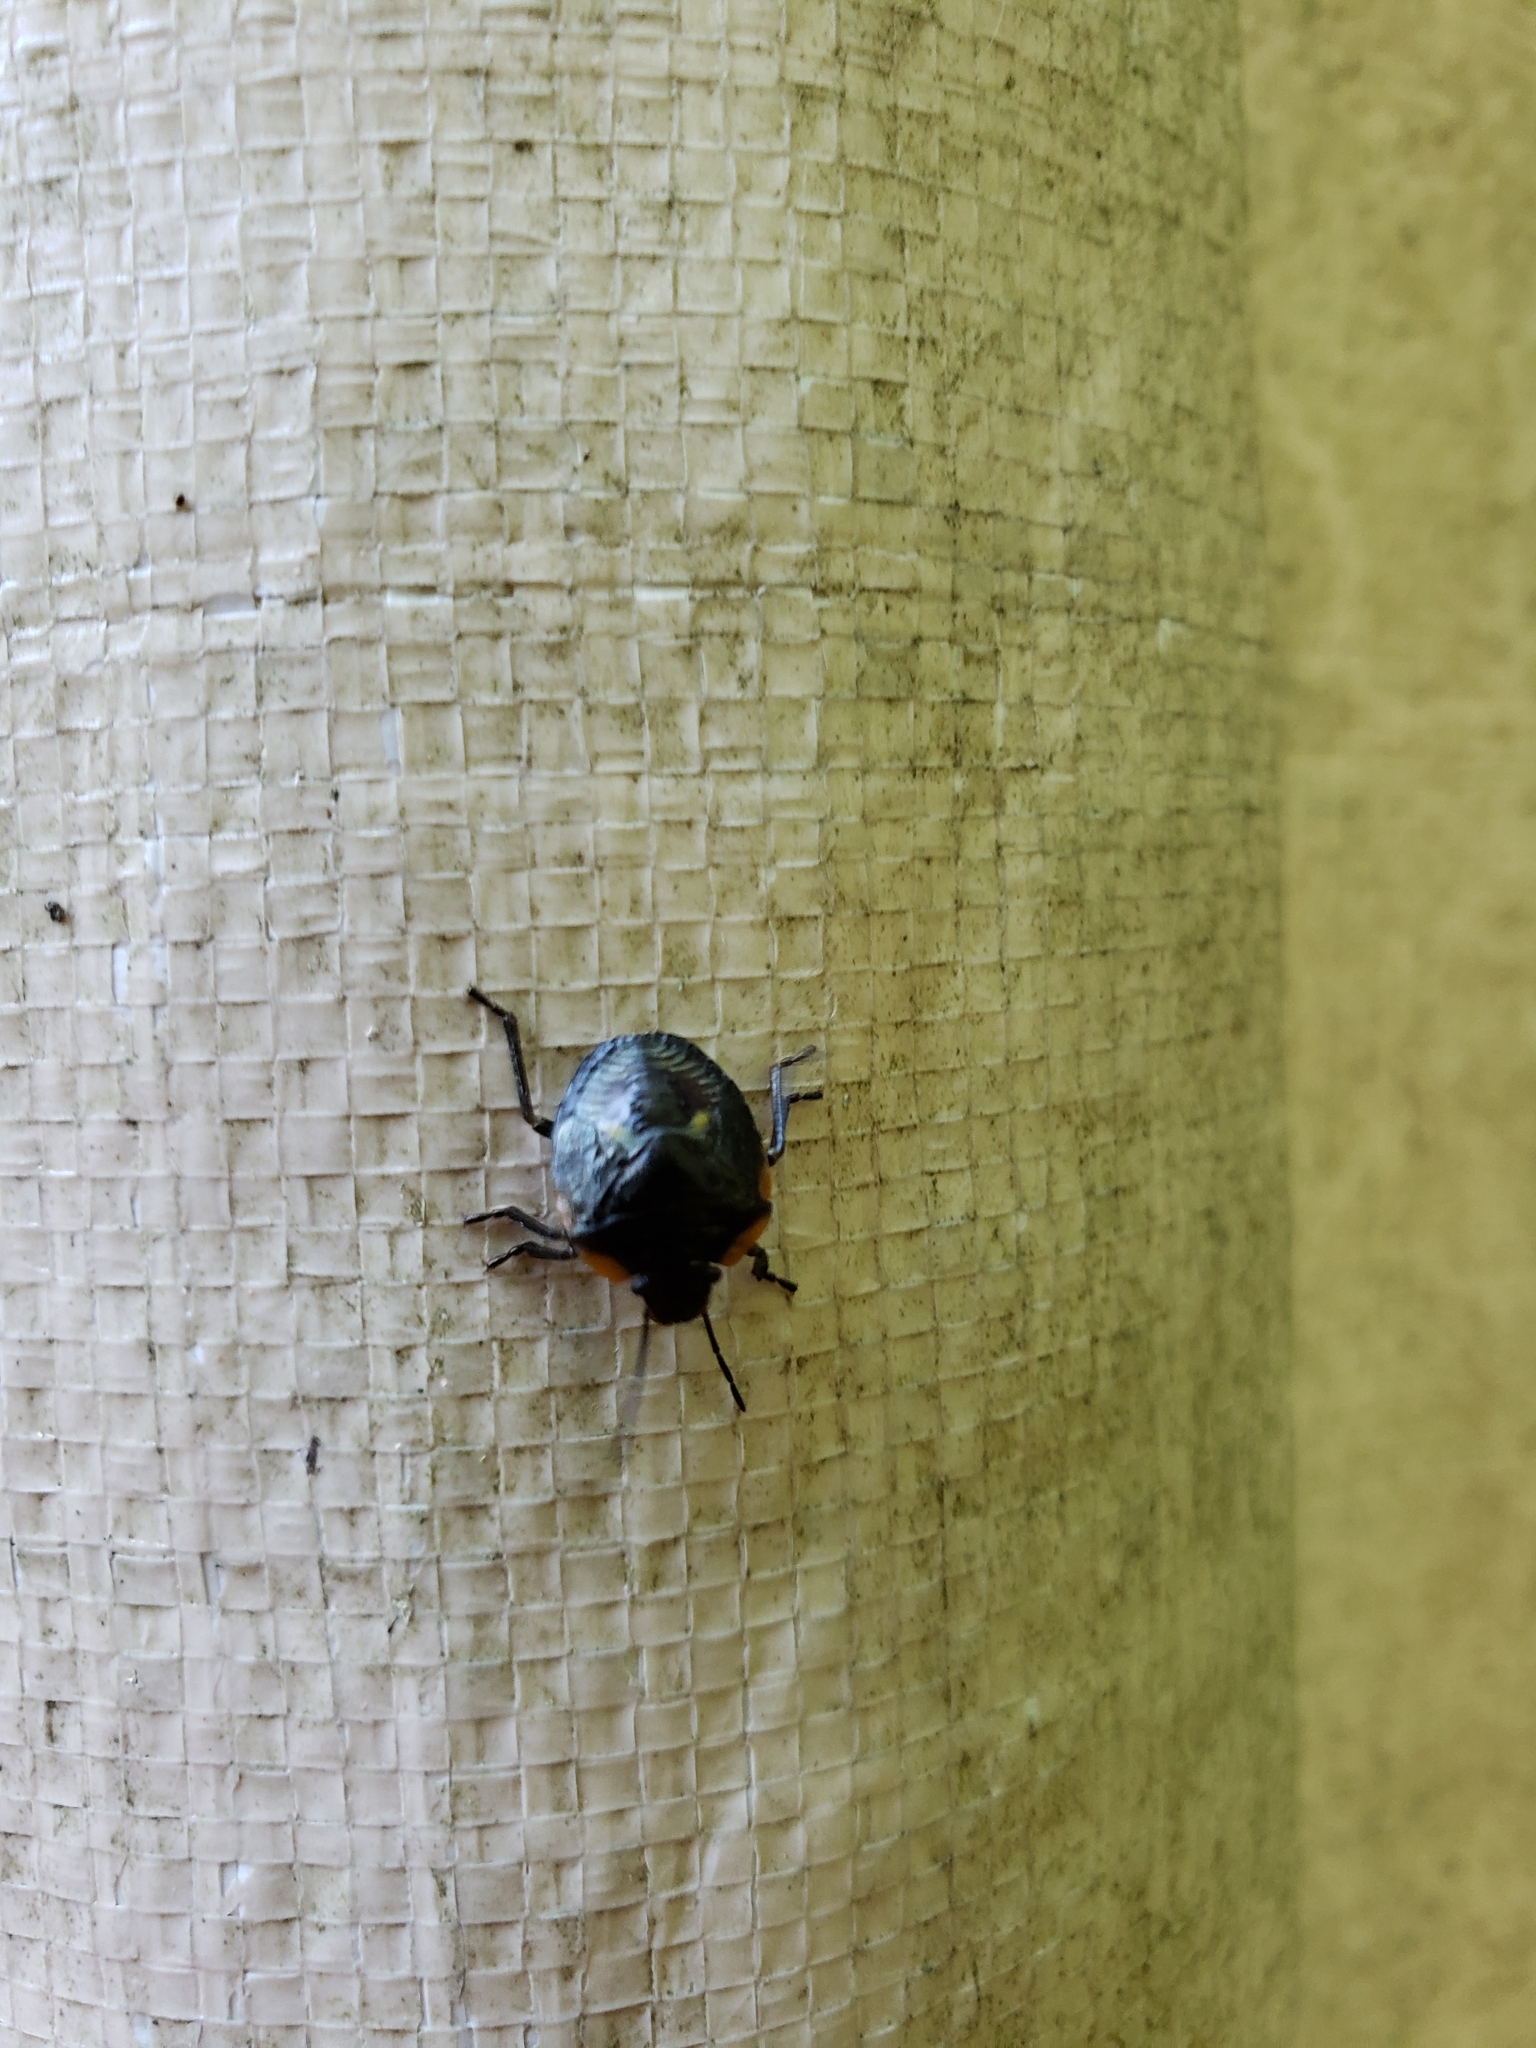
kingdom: Animalia
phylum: Arthropoda
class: Insecta
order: Hemiptera
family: Pentatomidae
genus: Chinavia
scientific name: Chinavia hilaris
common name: Green stink bug
